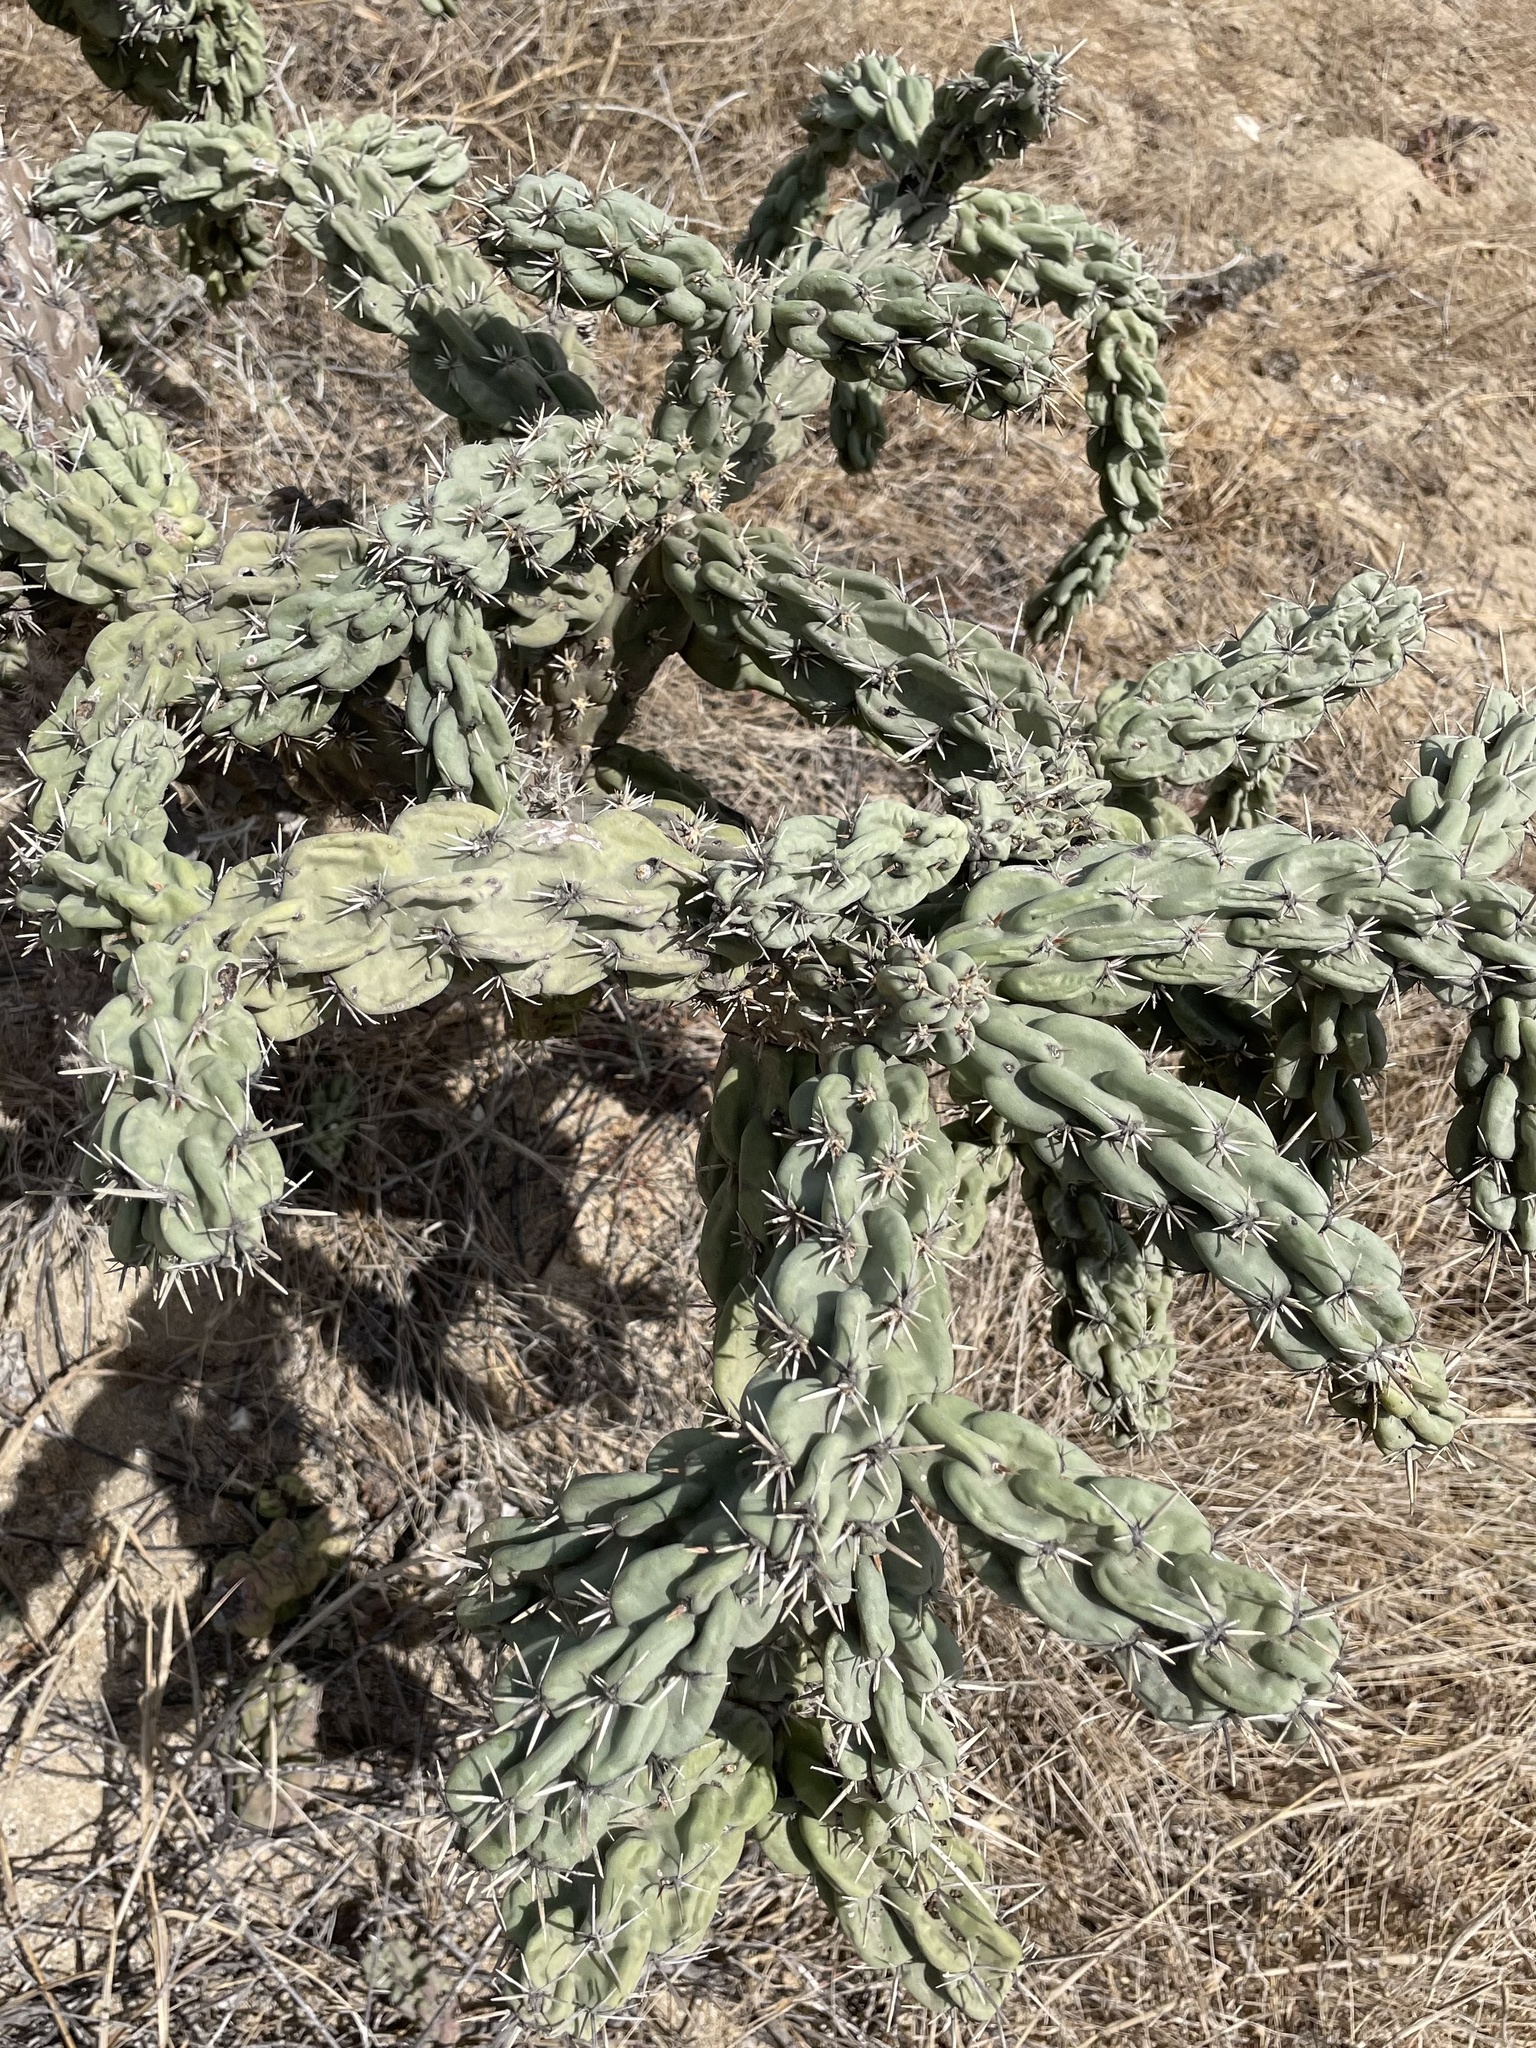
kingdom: Plantae
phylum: Tracheophyta
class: Magnoliopsida
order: Caryophyllales
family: Cactaceae
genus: Cylindropuntia
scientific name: Cylindropuntia cholla
